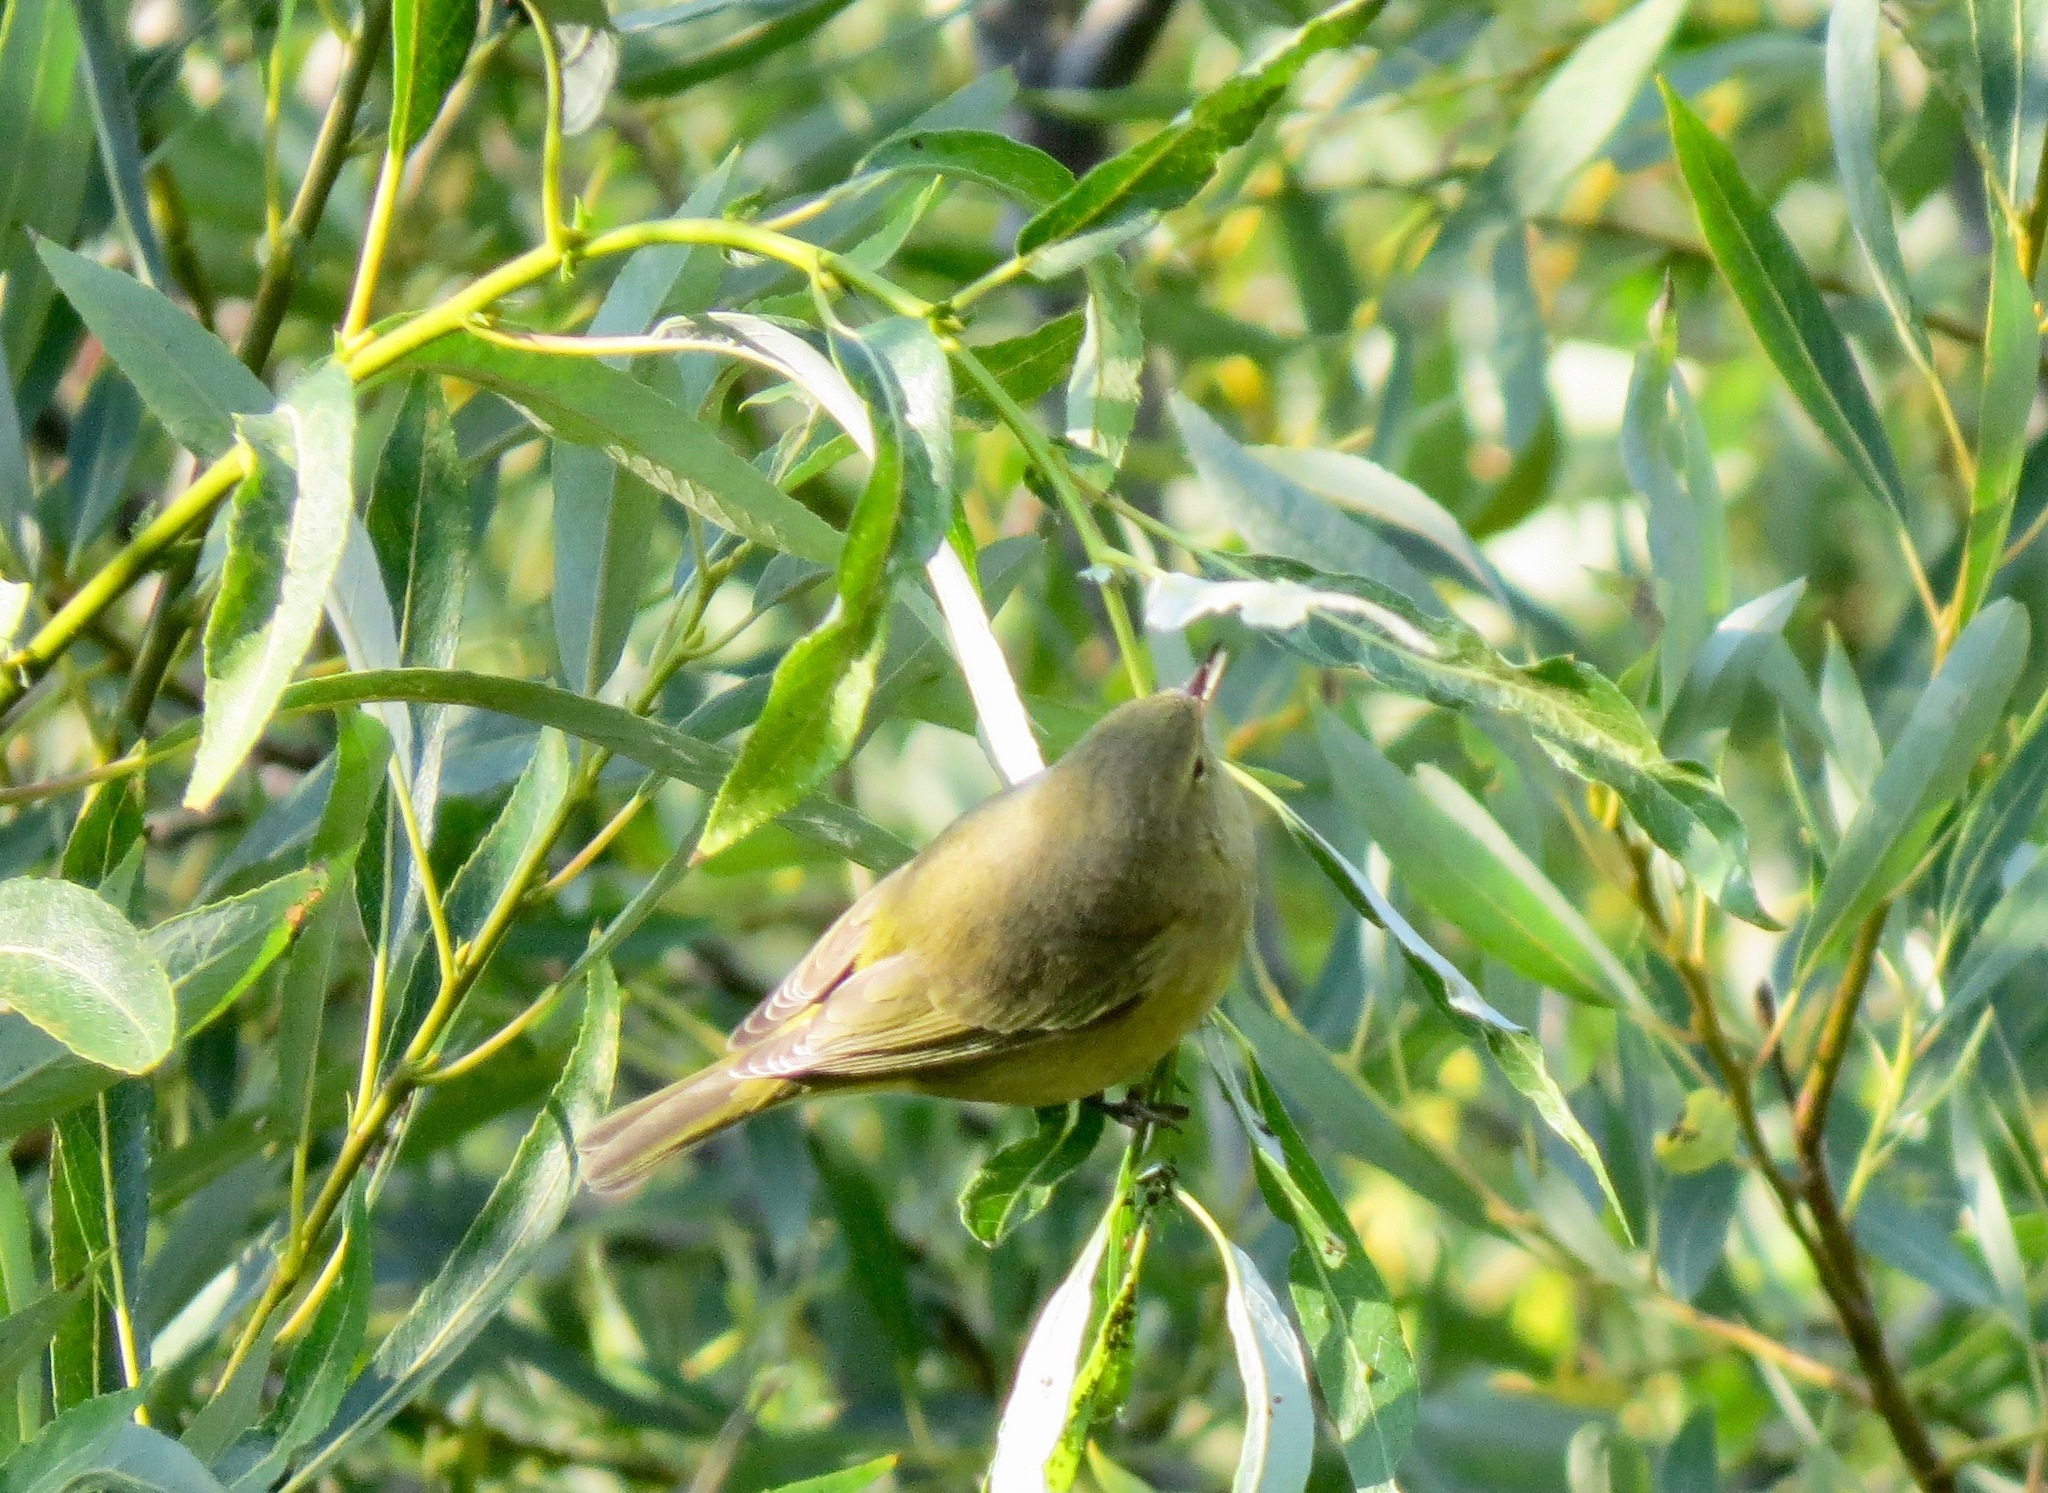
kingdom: Animalia
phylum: Chordata
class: Aves
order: Passeriformes
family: Parulidae
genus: Leiothlypis
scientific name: Leiothlypis celata
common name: Orange-crowned warbler
